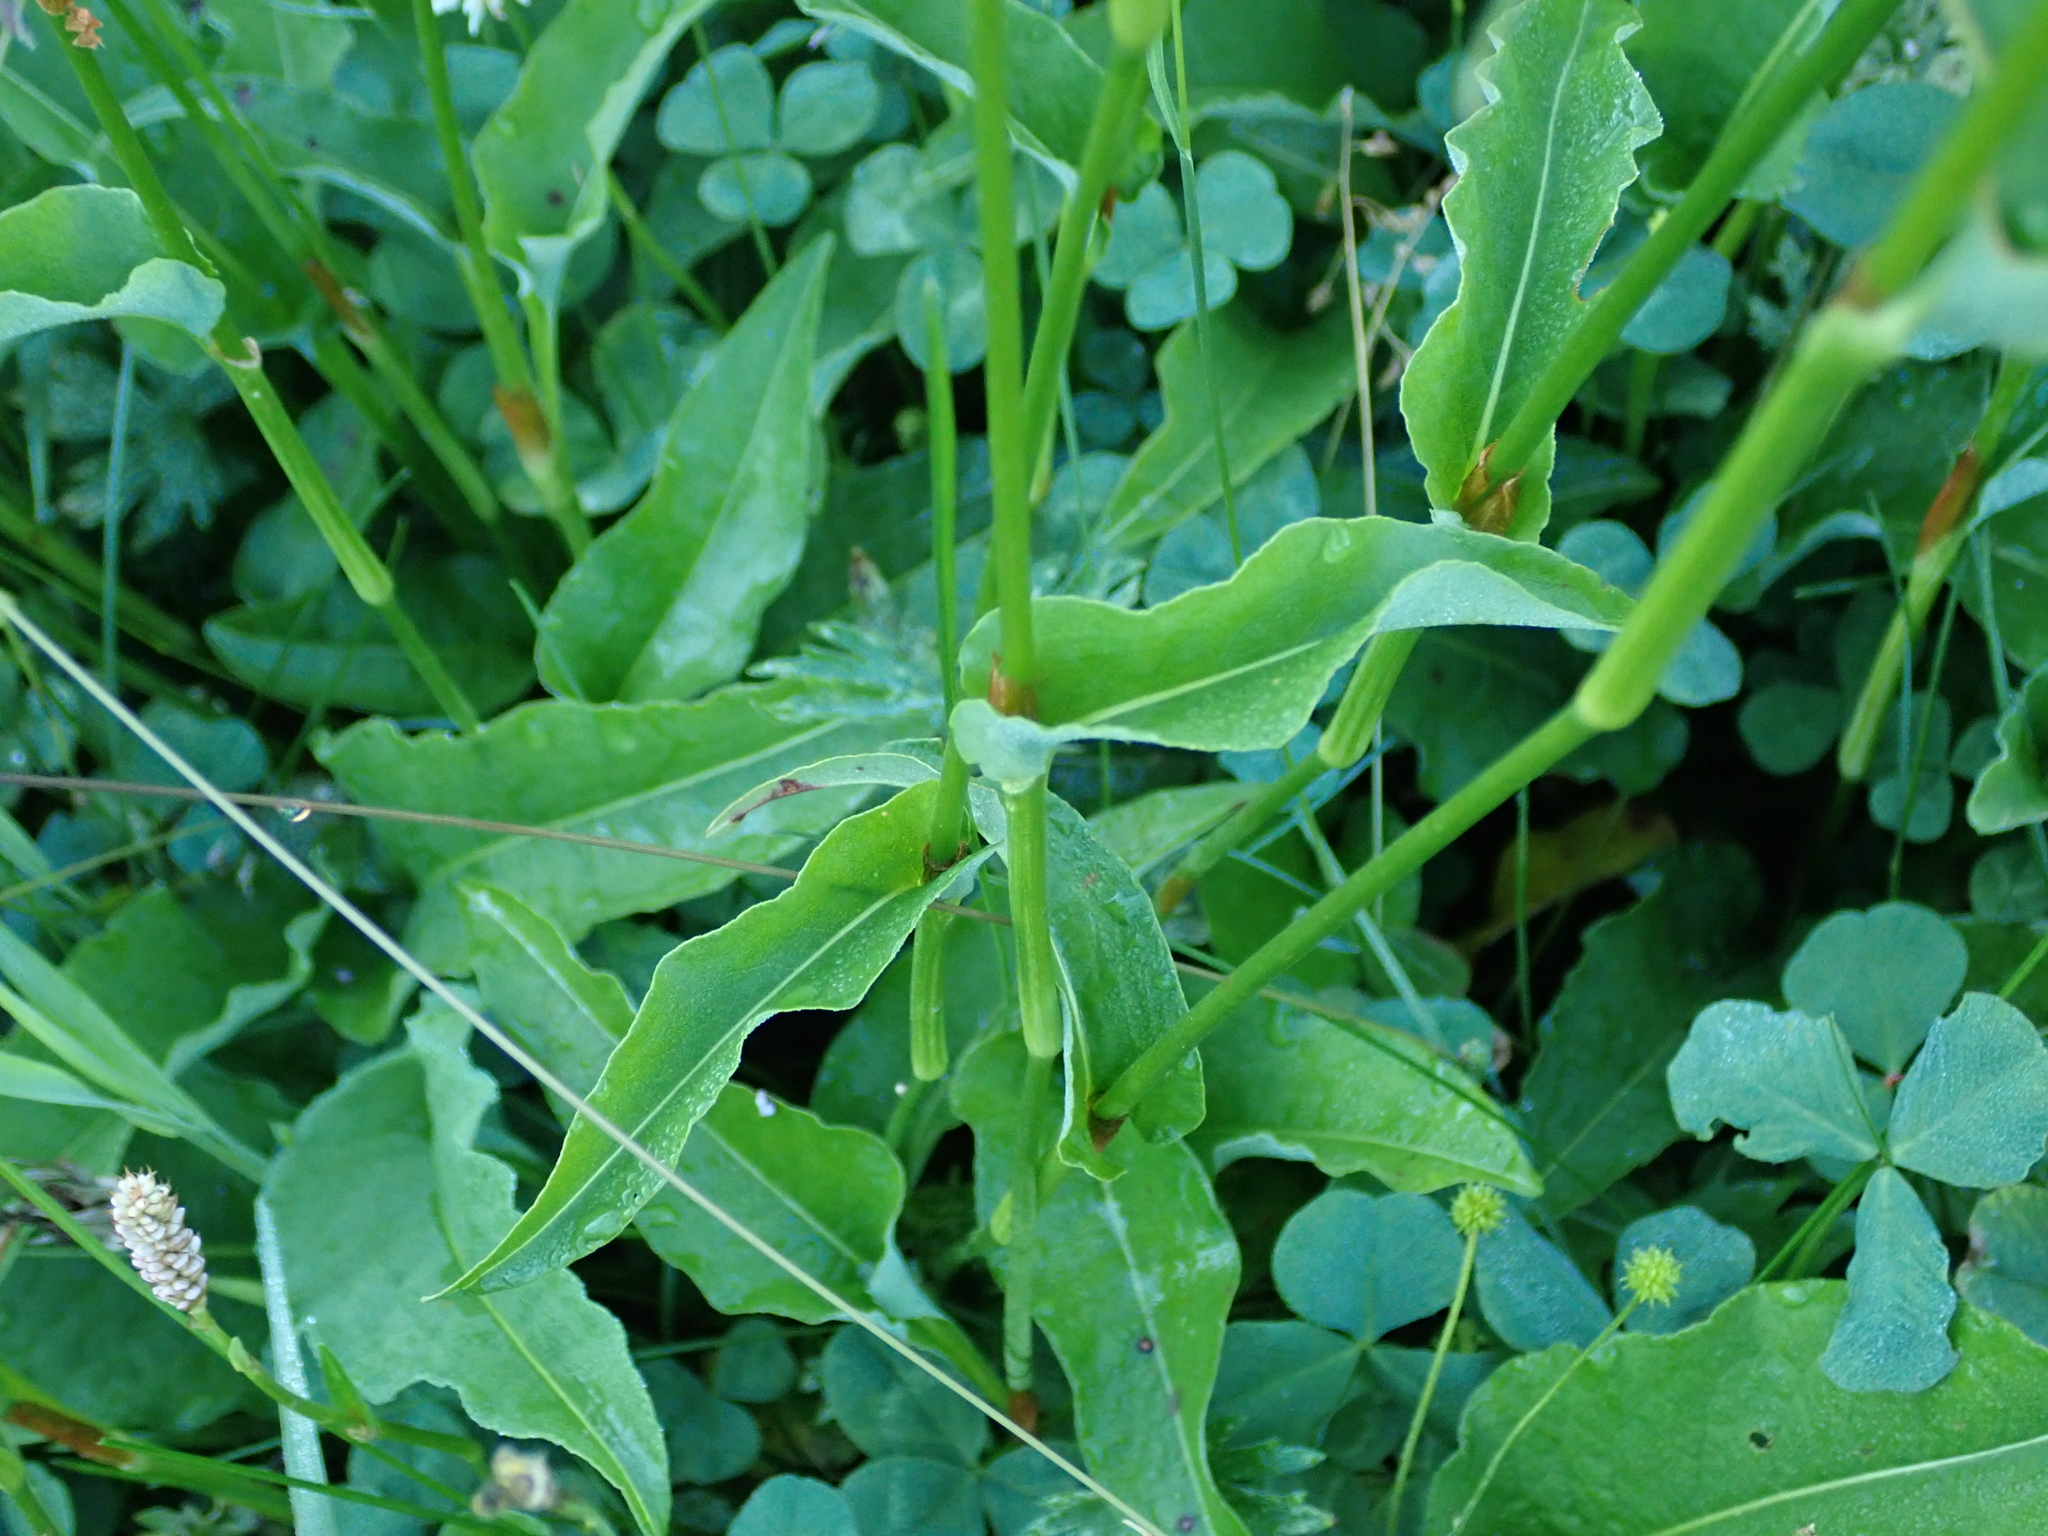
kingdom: Plantae
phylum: Tracheophyta
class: Magnoliopsida
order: Caryophyllales
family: Polygonaceae
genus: Bistorta
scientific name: Bistorta officinalis
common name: Common bistort
